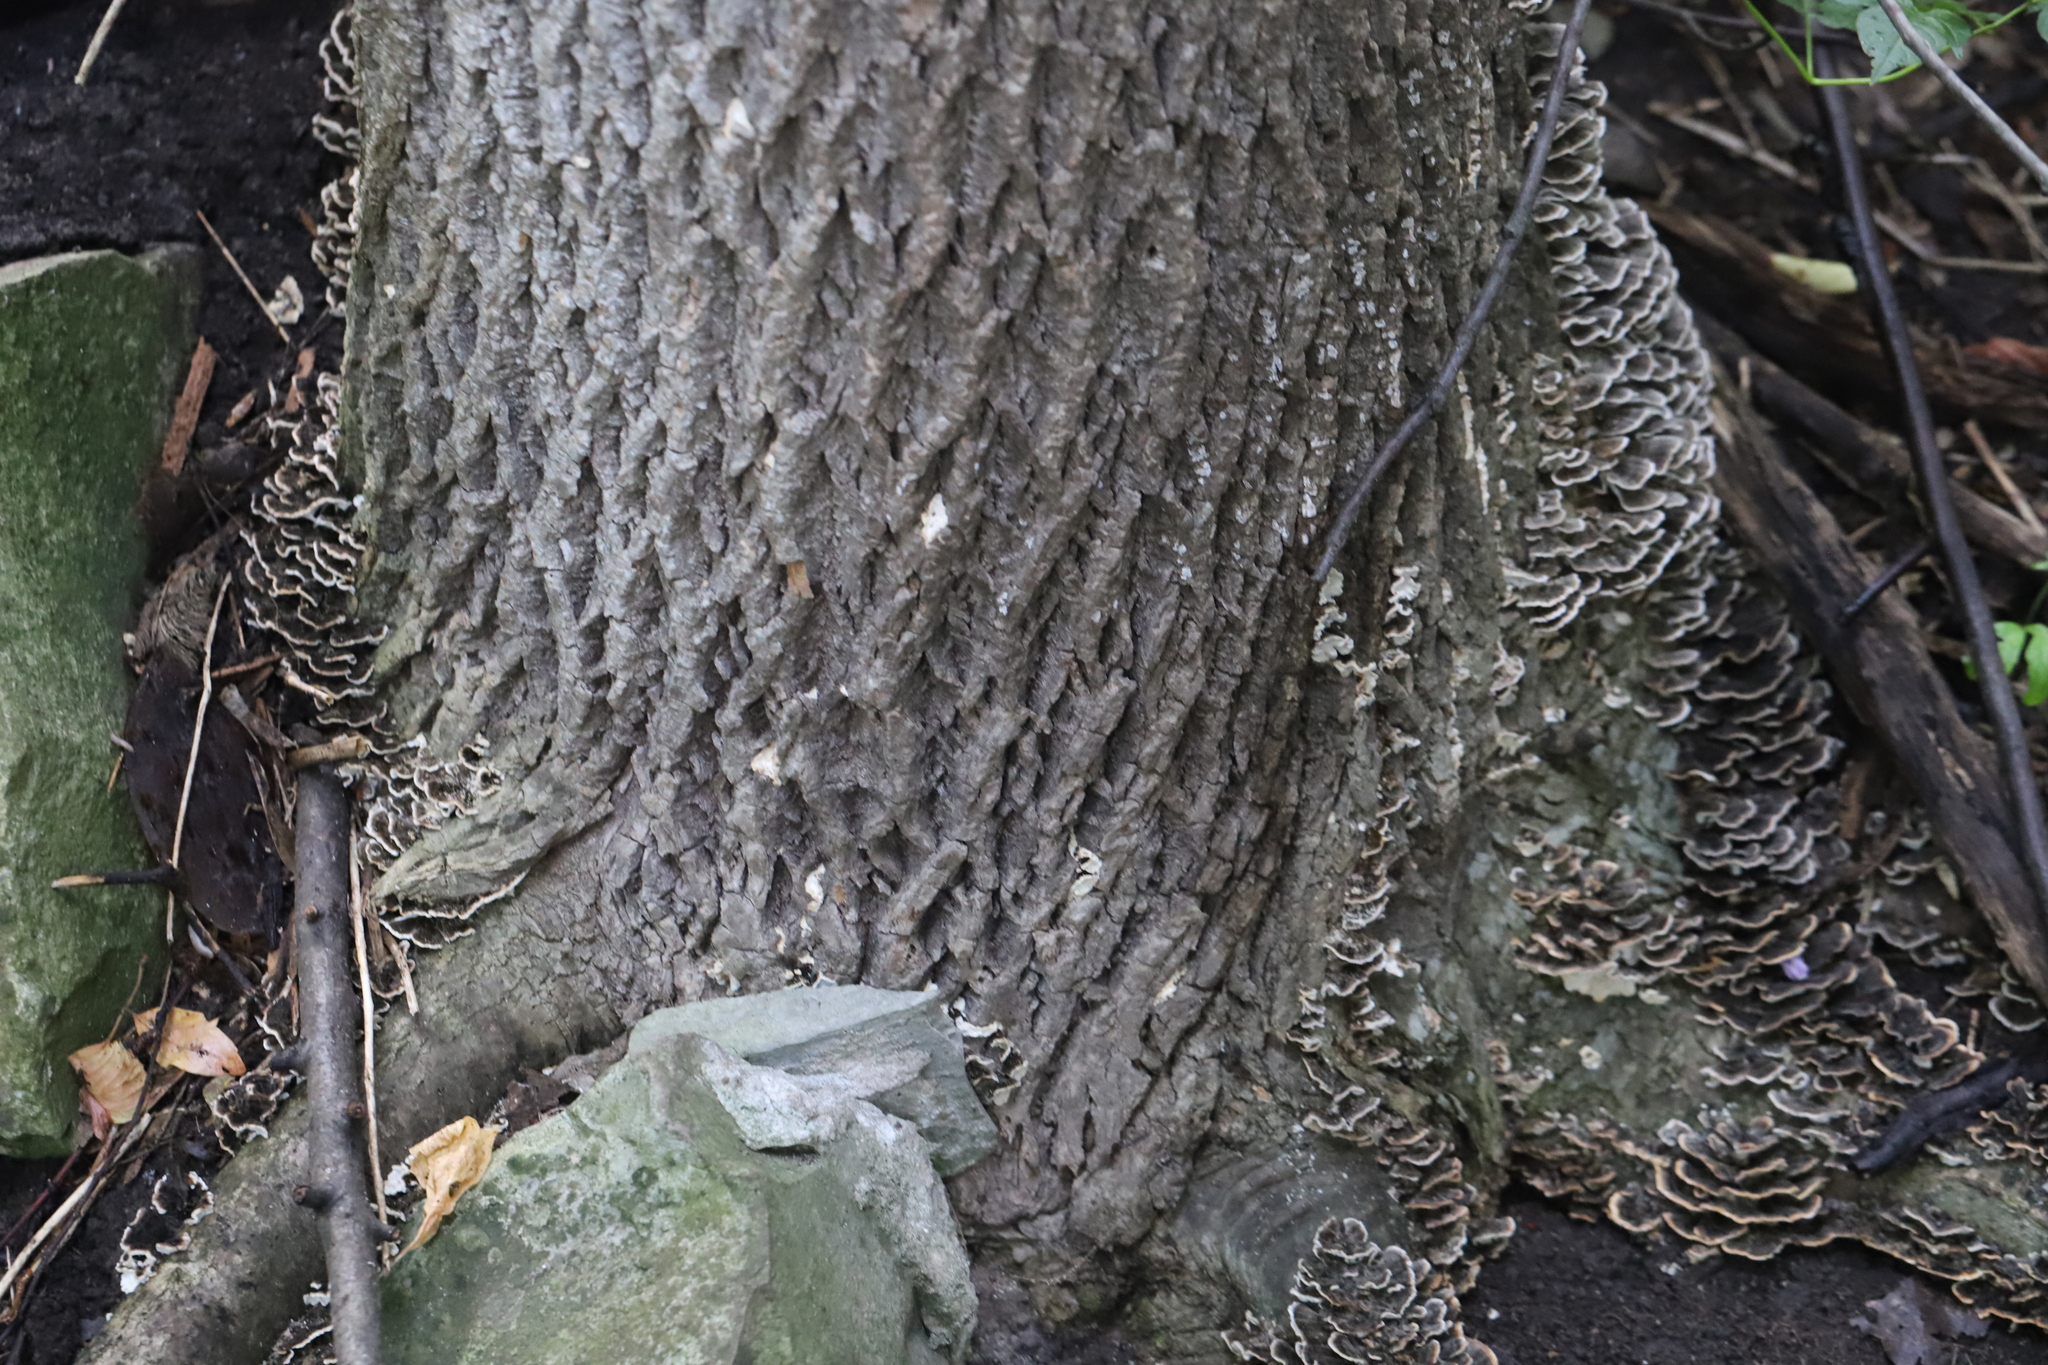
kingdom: Fungi
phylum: Basidiomycota
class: Agaricomycetes
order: Polyporales
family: Polyporaceae
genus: Trametes
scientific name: Trametes versicolor
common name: Turkeytail
